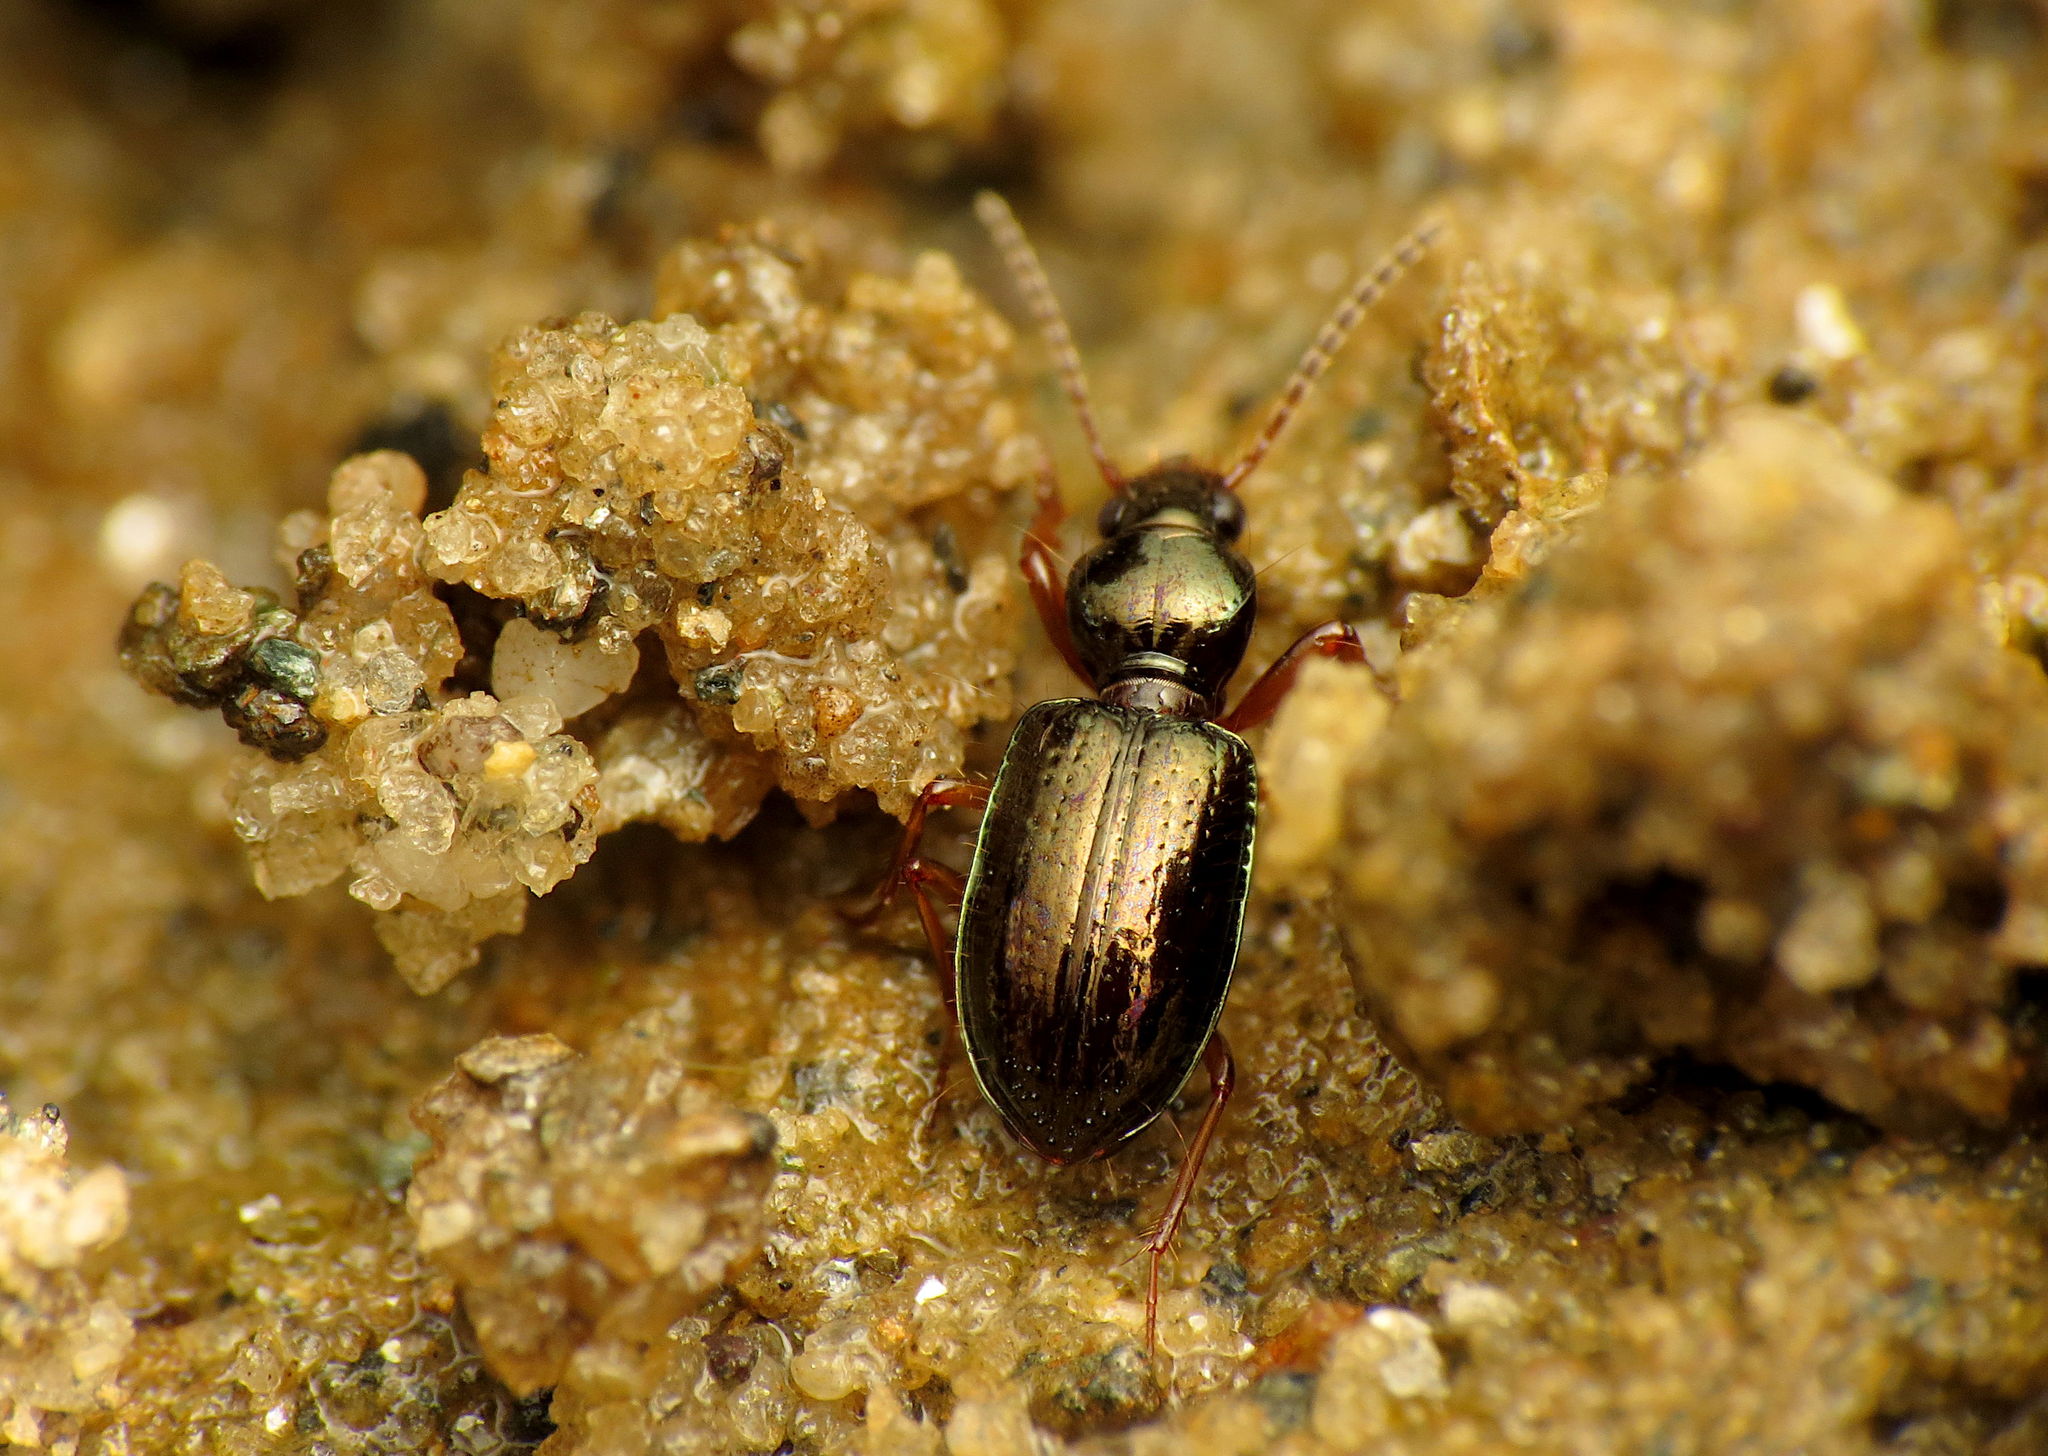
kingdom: Animalia
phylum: Arthropoda
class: Insecta
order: Coleoptera
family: Carabidae
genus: Semiardistomis
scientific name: Semiardistomis viridis
